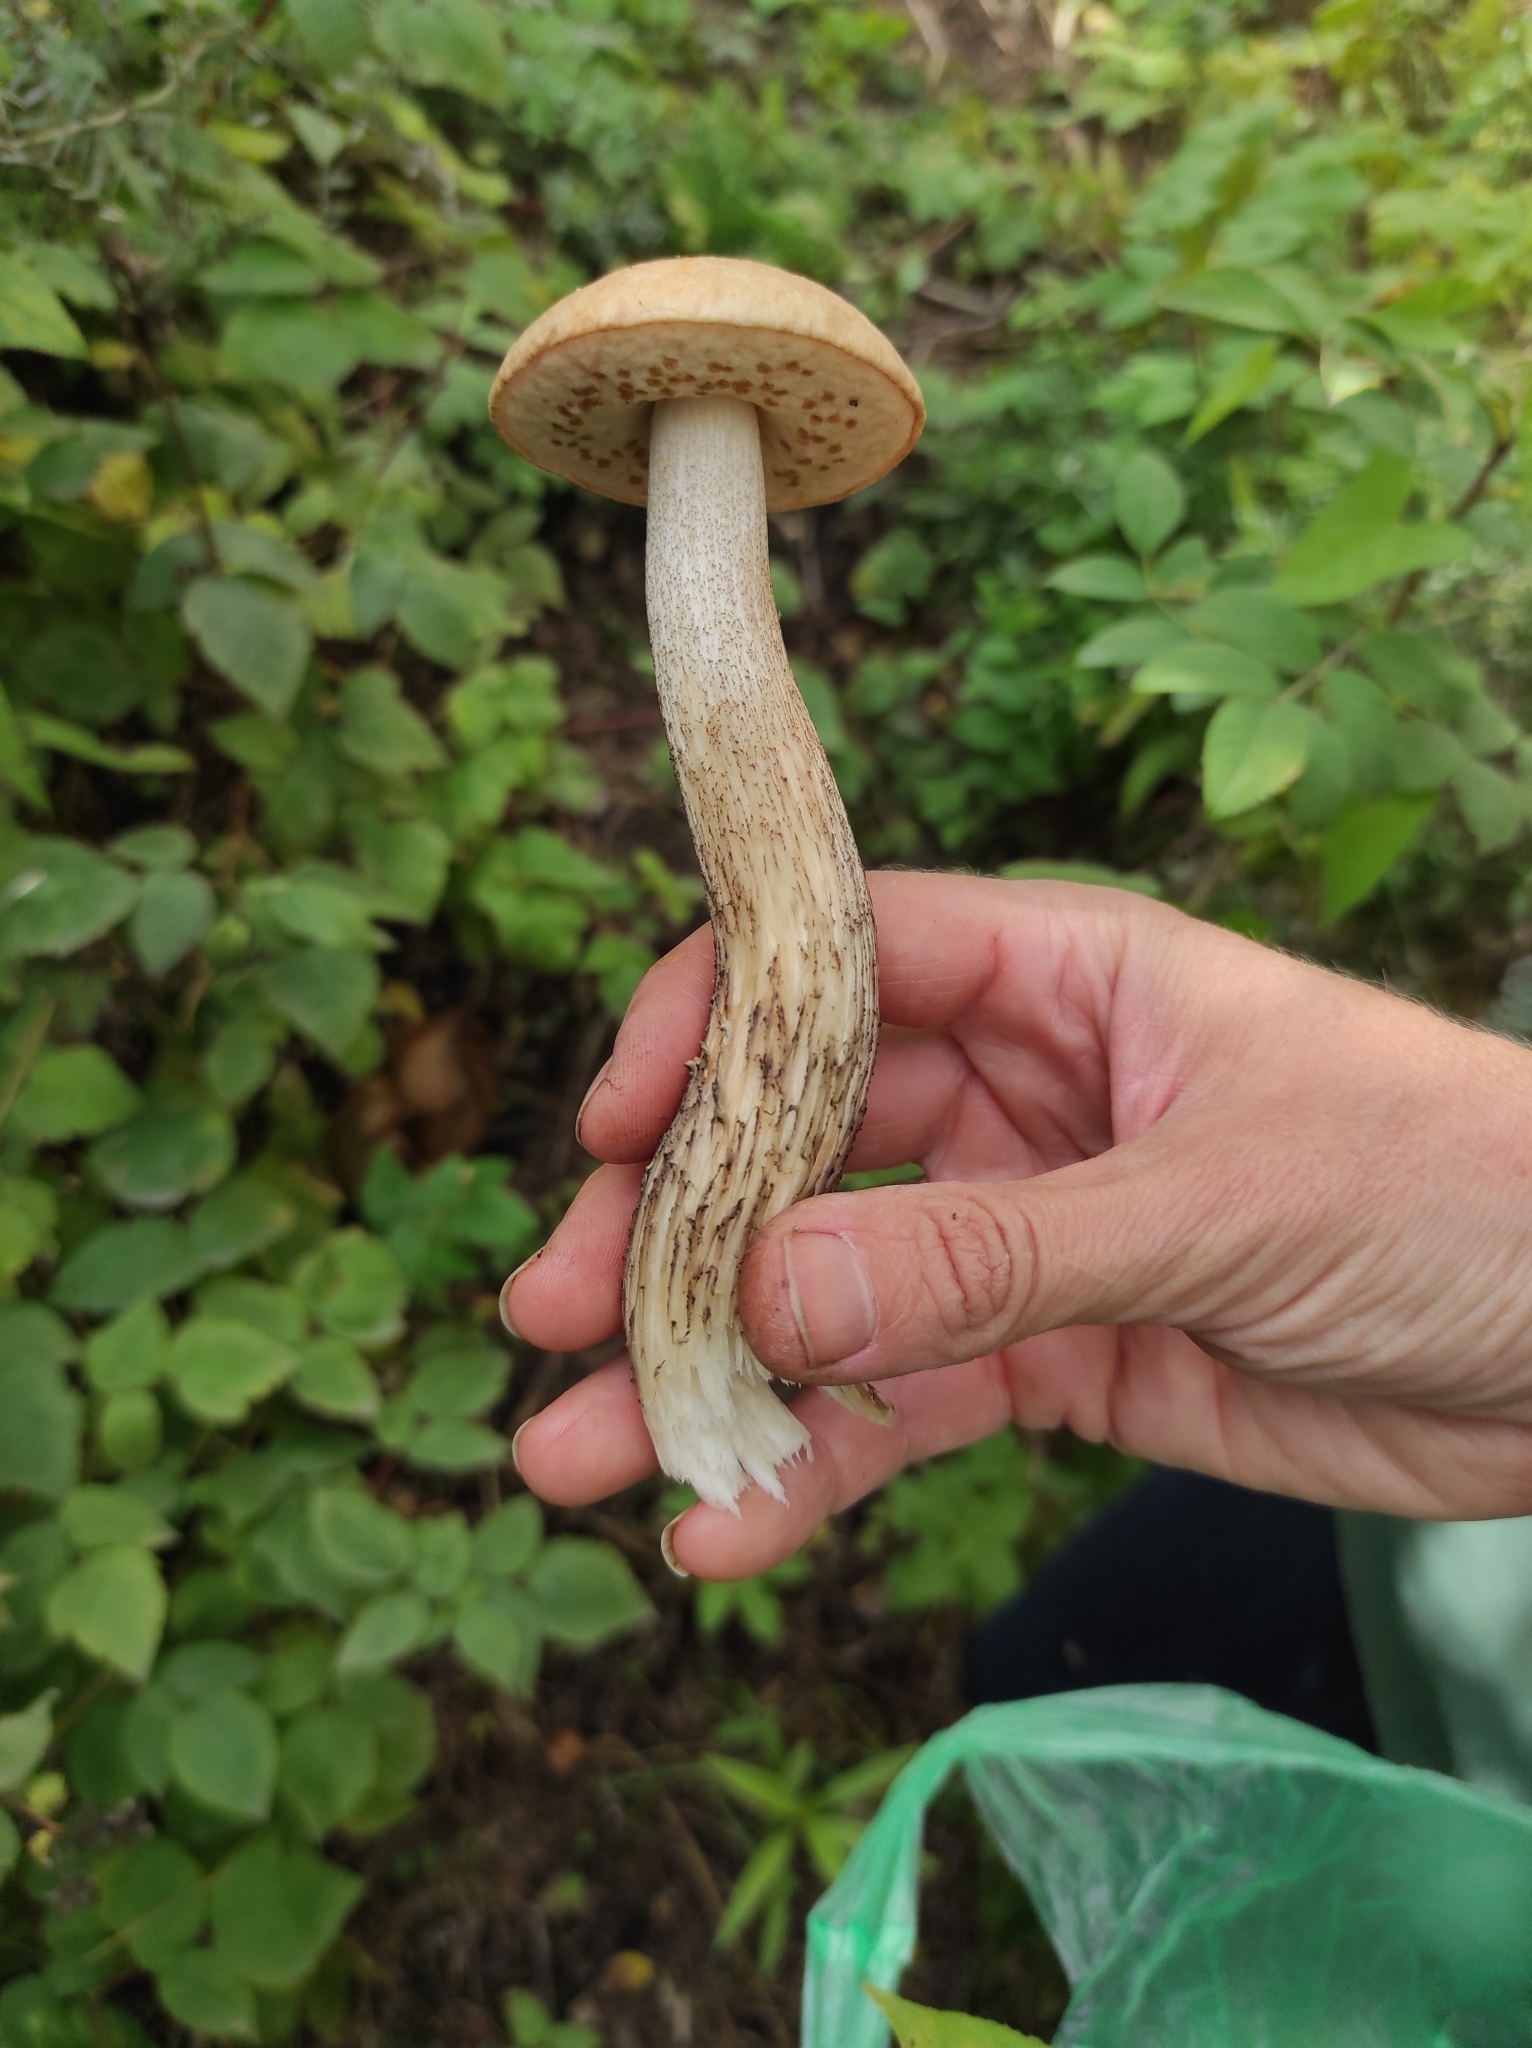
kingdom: Fungi
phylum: Basidiomycota
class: Agaricomycetes
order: Boletales
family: Boletaceae
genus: Leccinum
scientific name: Leccinum scabrum
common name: Blushing bolete
